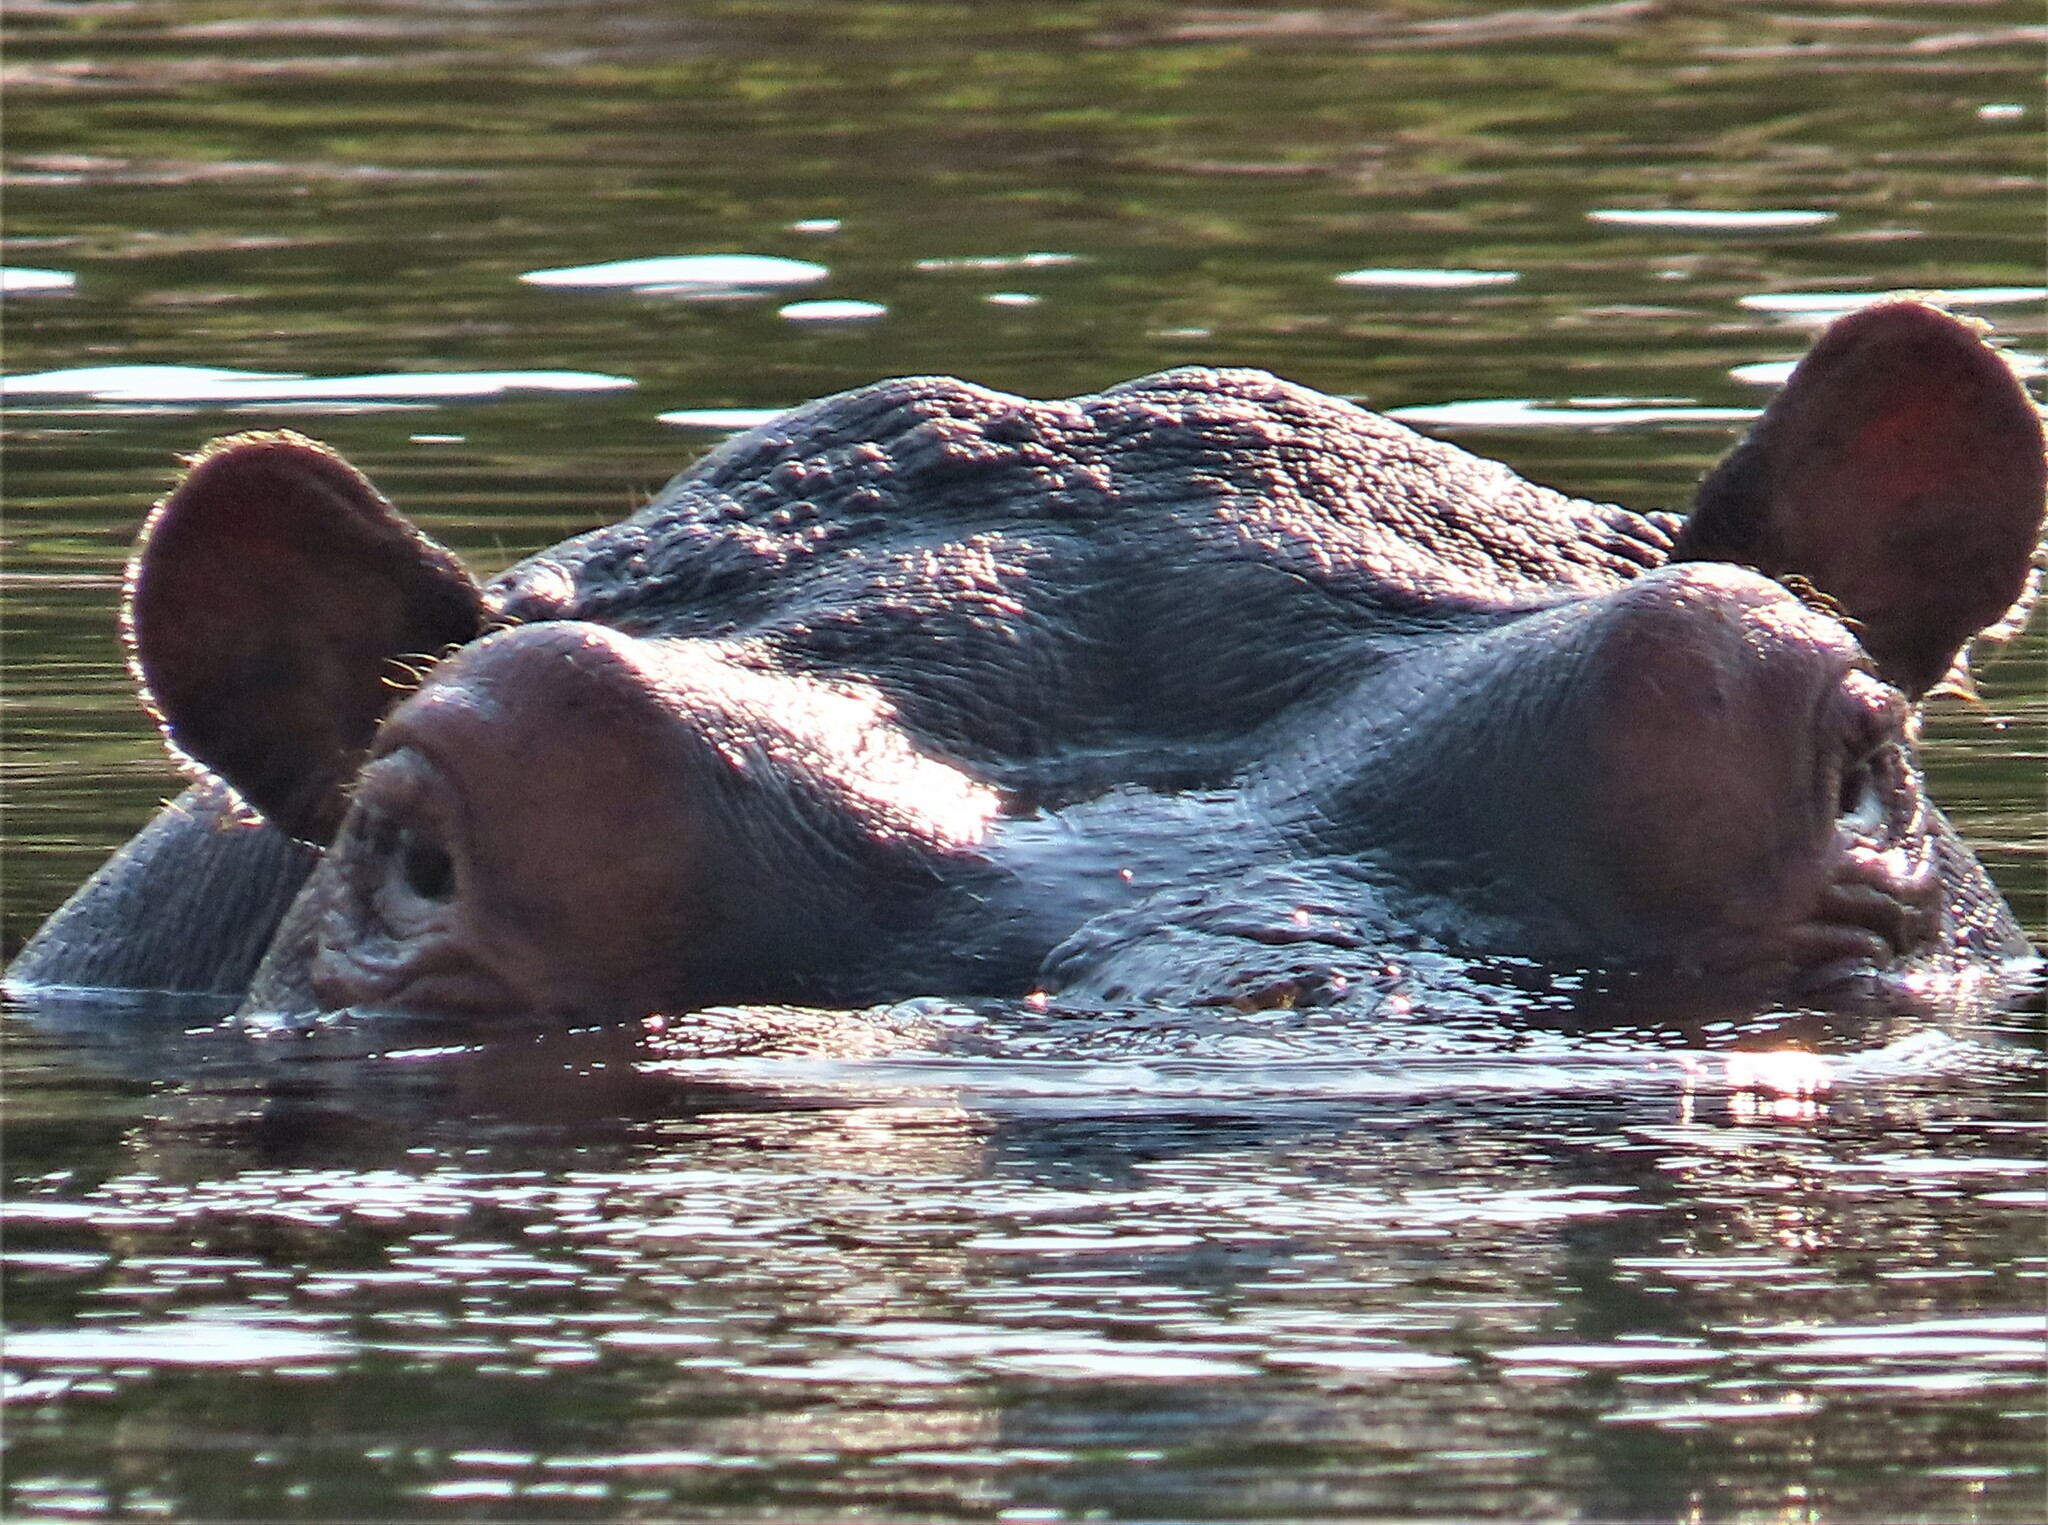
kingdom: Animalia
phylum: Chordata
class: Mammalia
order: Artiodactyla
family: Hippopotamidae
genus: Hippopotamus
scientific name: Hippopotamus amphibius
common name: Common hippopotamus
